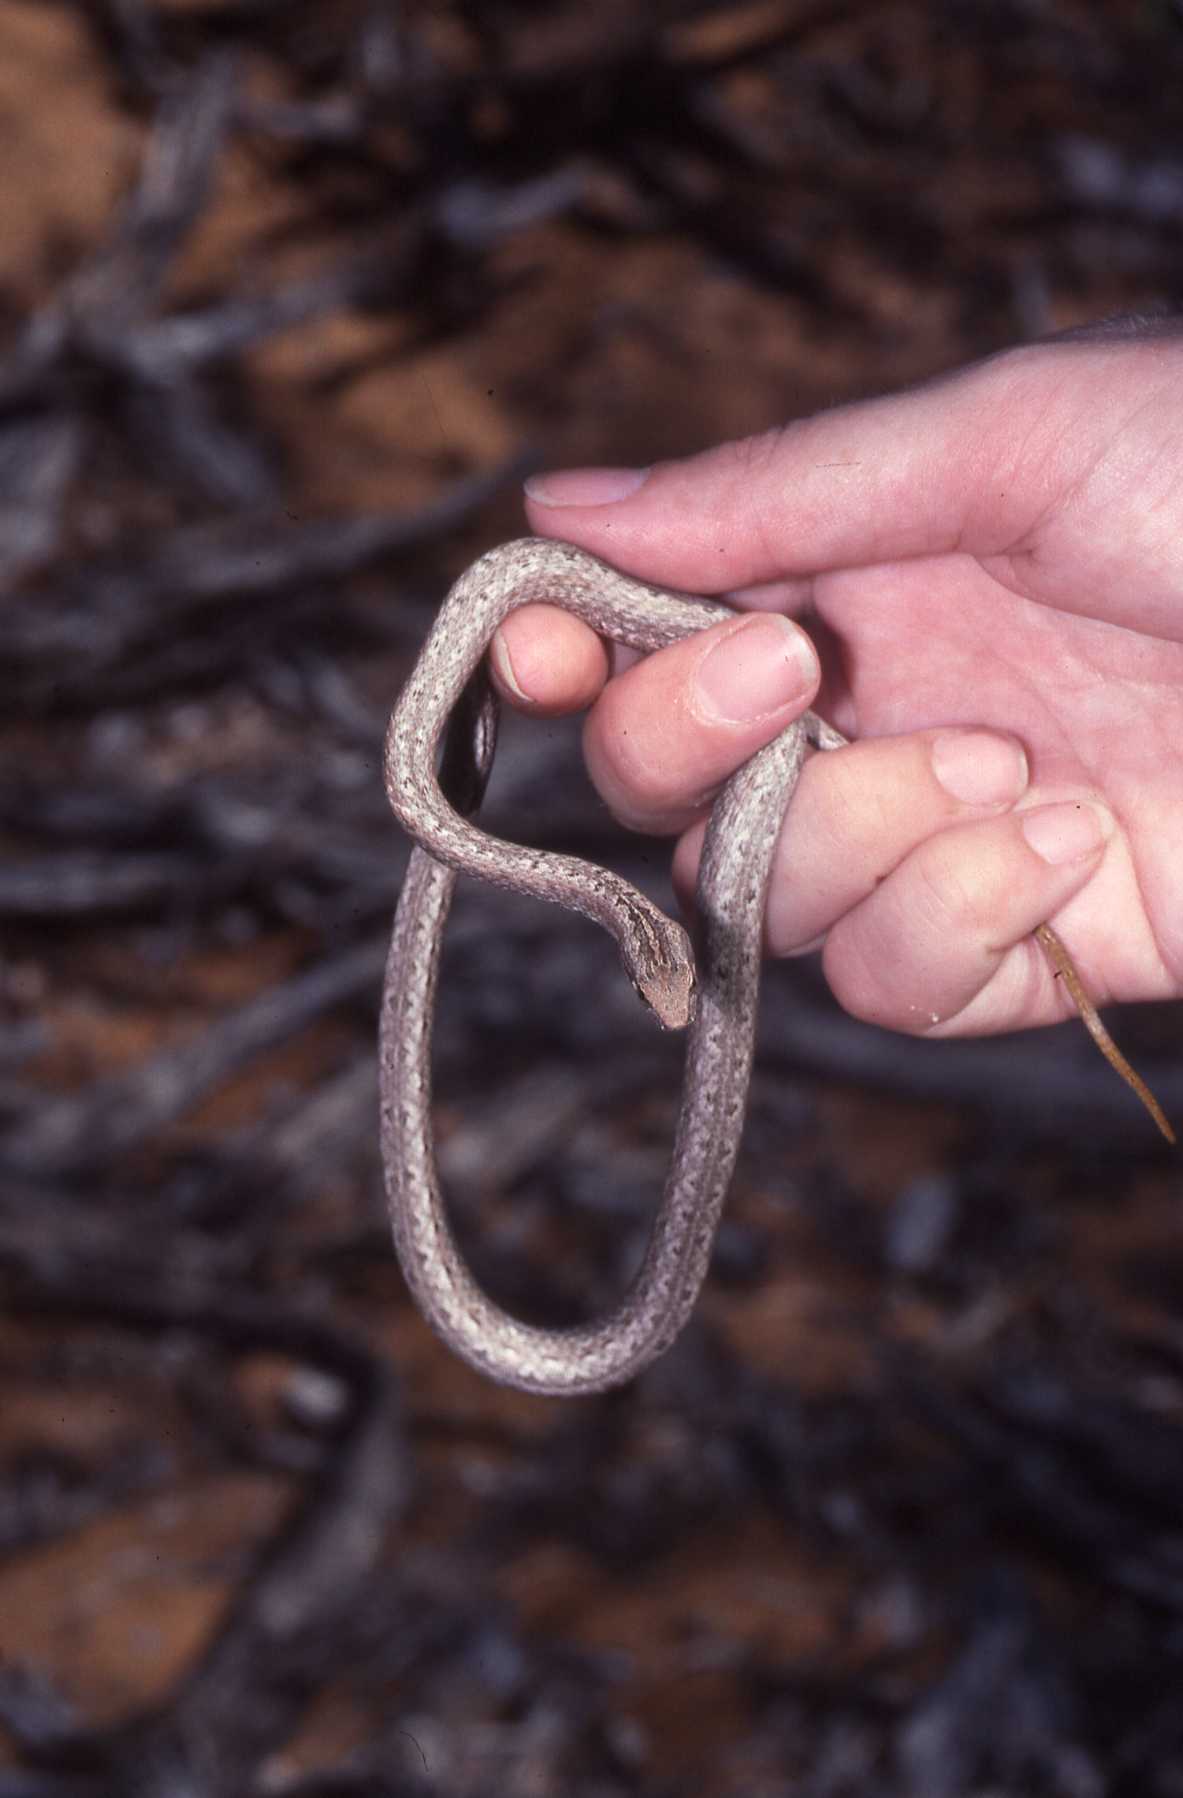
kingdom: Animalia
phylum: Chordata
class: Squamata
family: Psammophiidae
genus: Mimophis
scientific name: Mimophis mahfalensis
